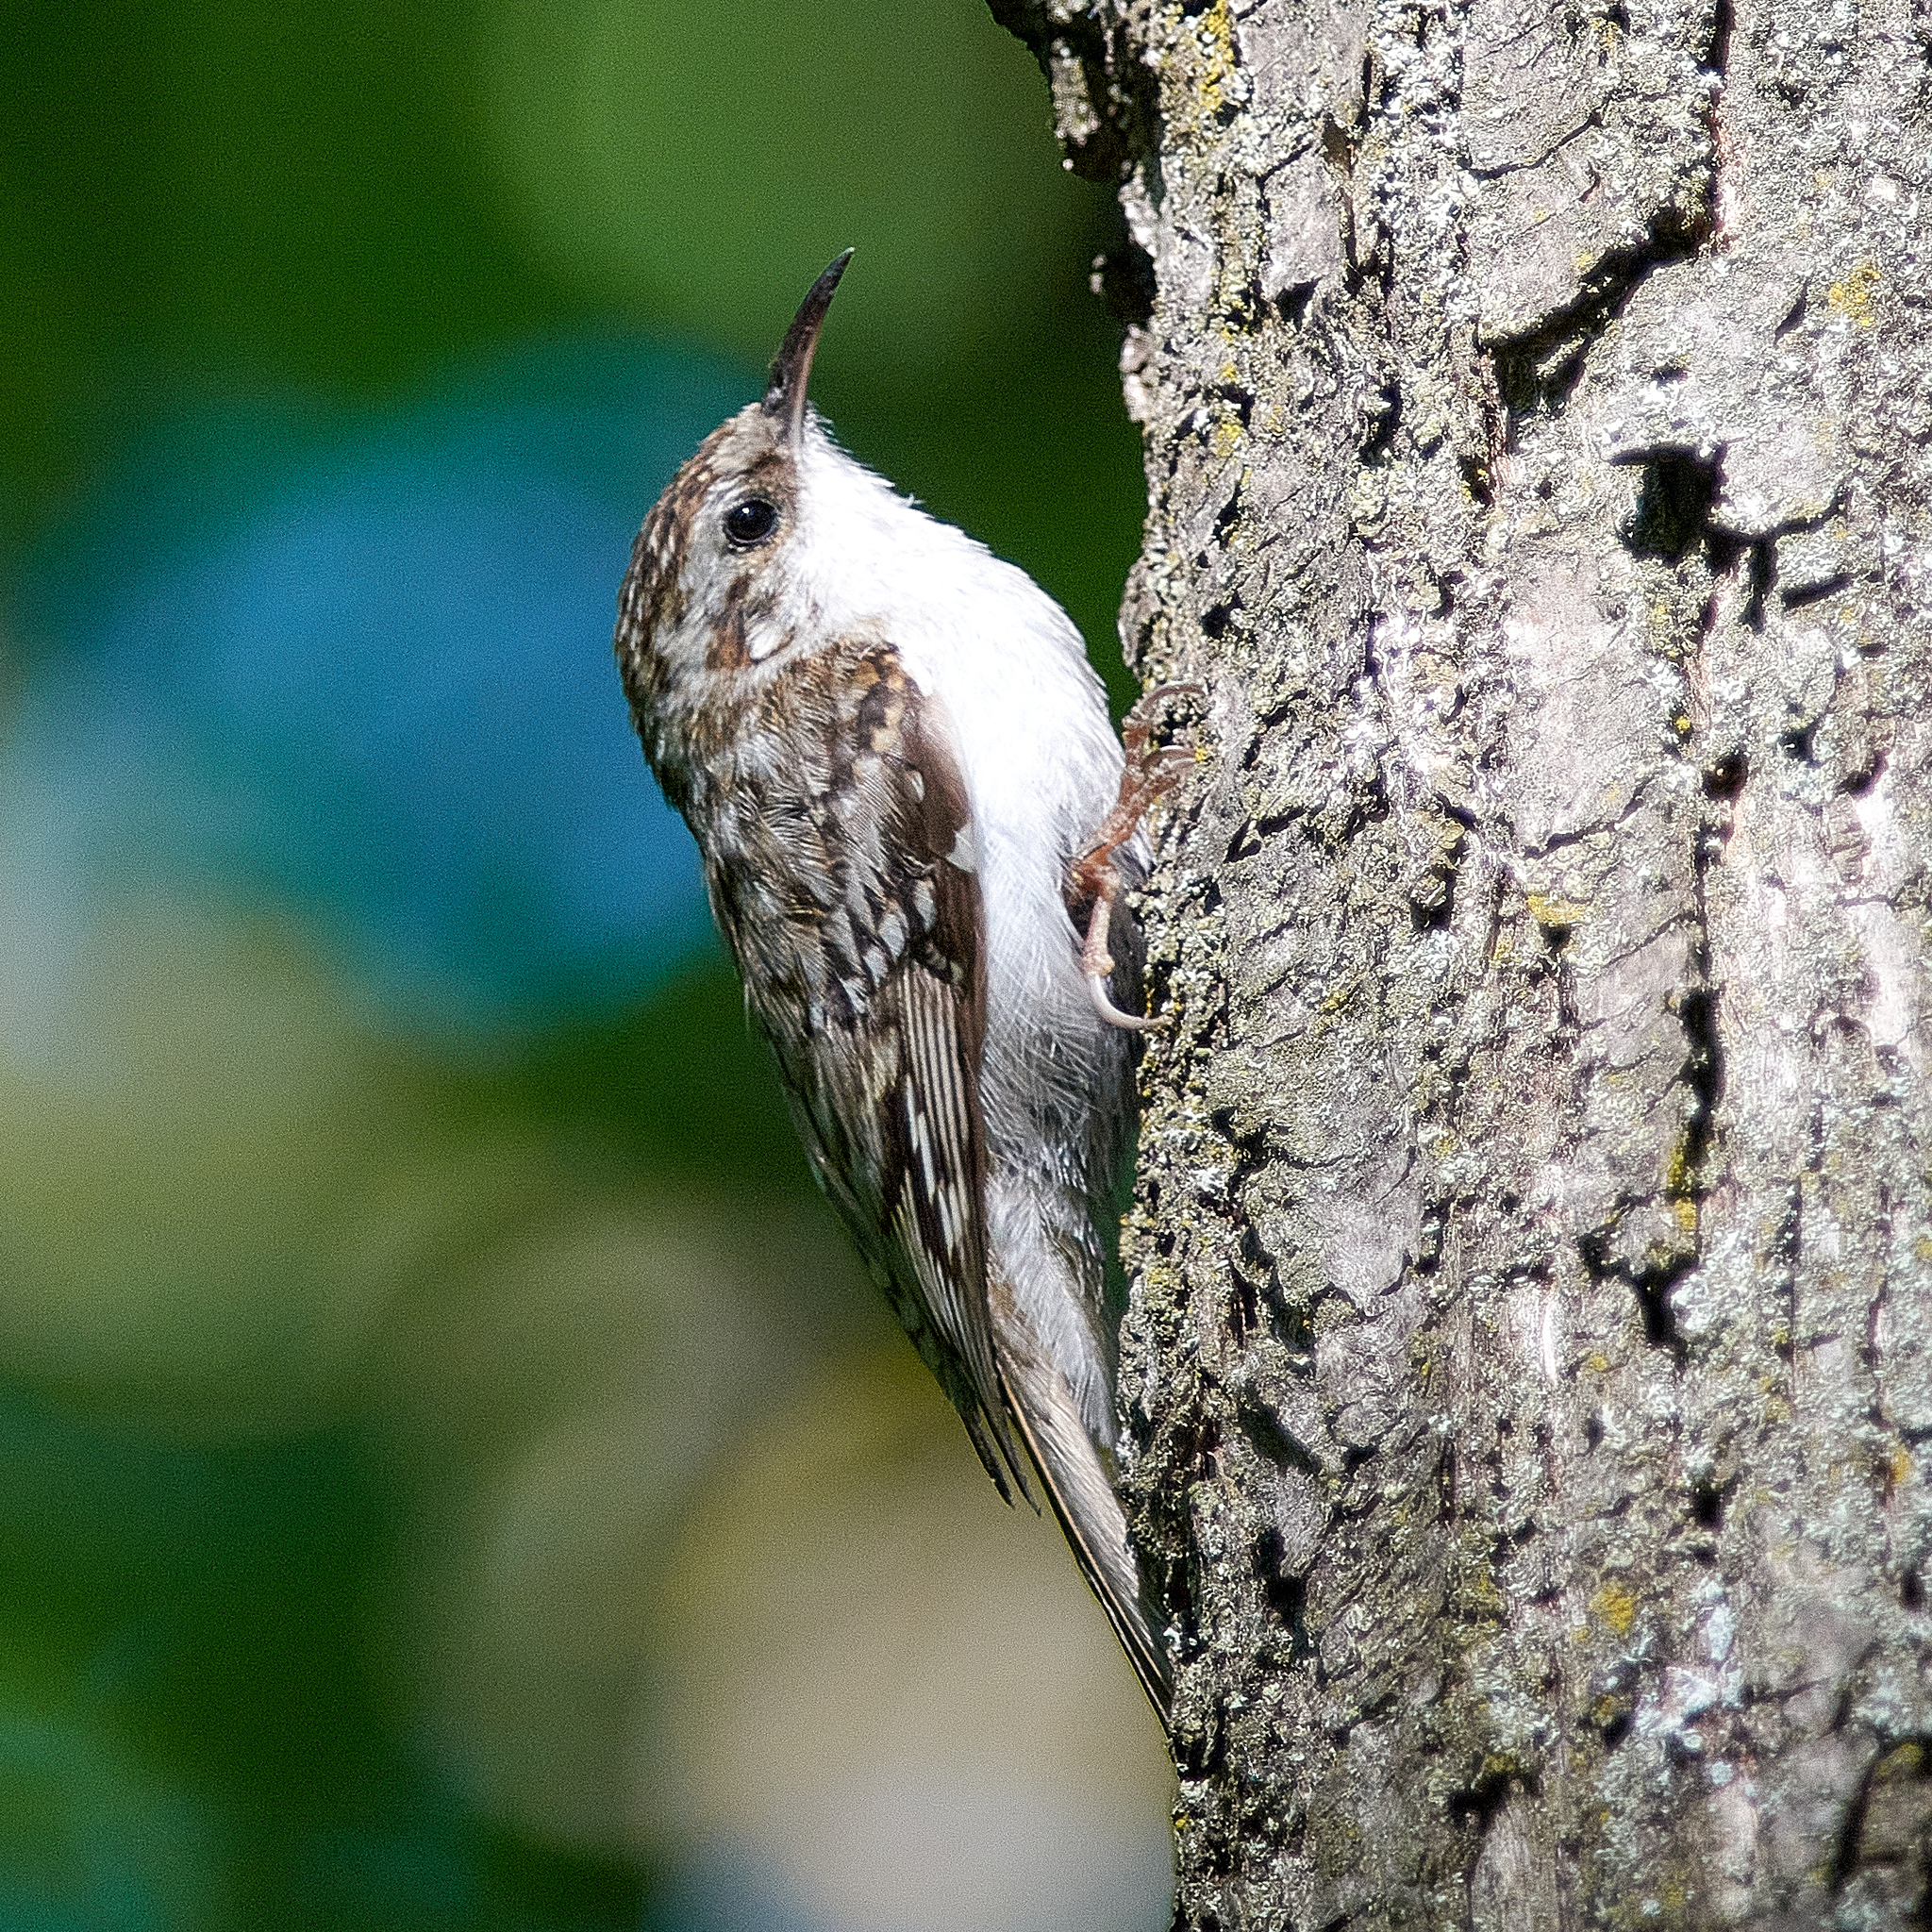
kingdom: Animalia
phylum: Chordata
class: Aves
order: Passeriformes
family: Certhiidae
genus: Certhia
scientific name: Certhia familiaris
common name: Eurasian treecreeper
